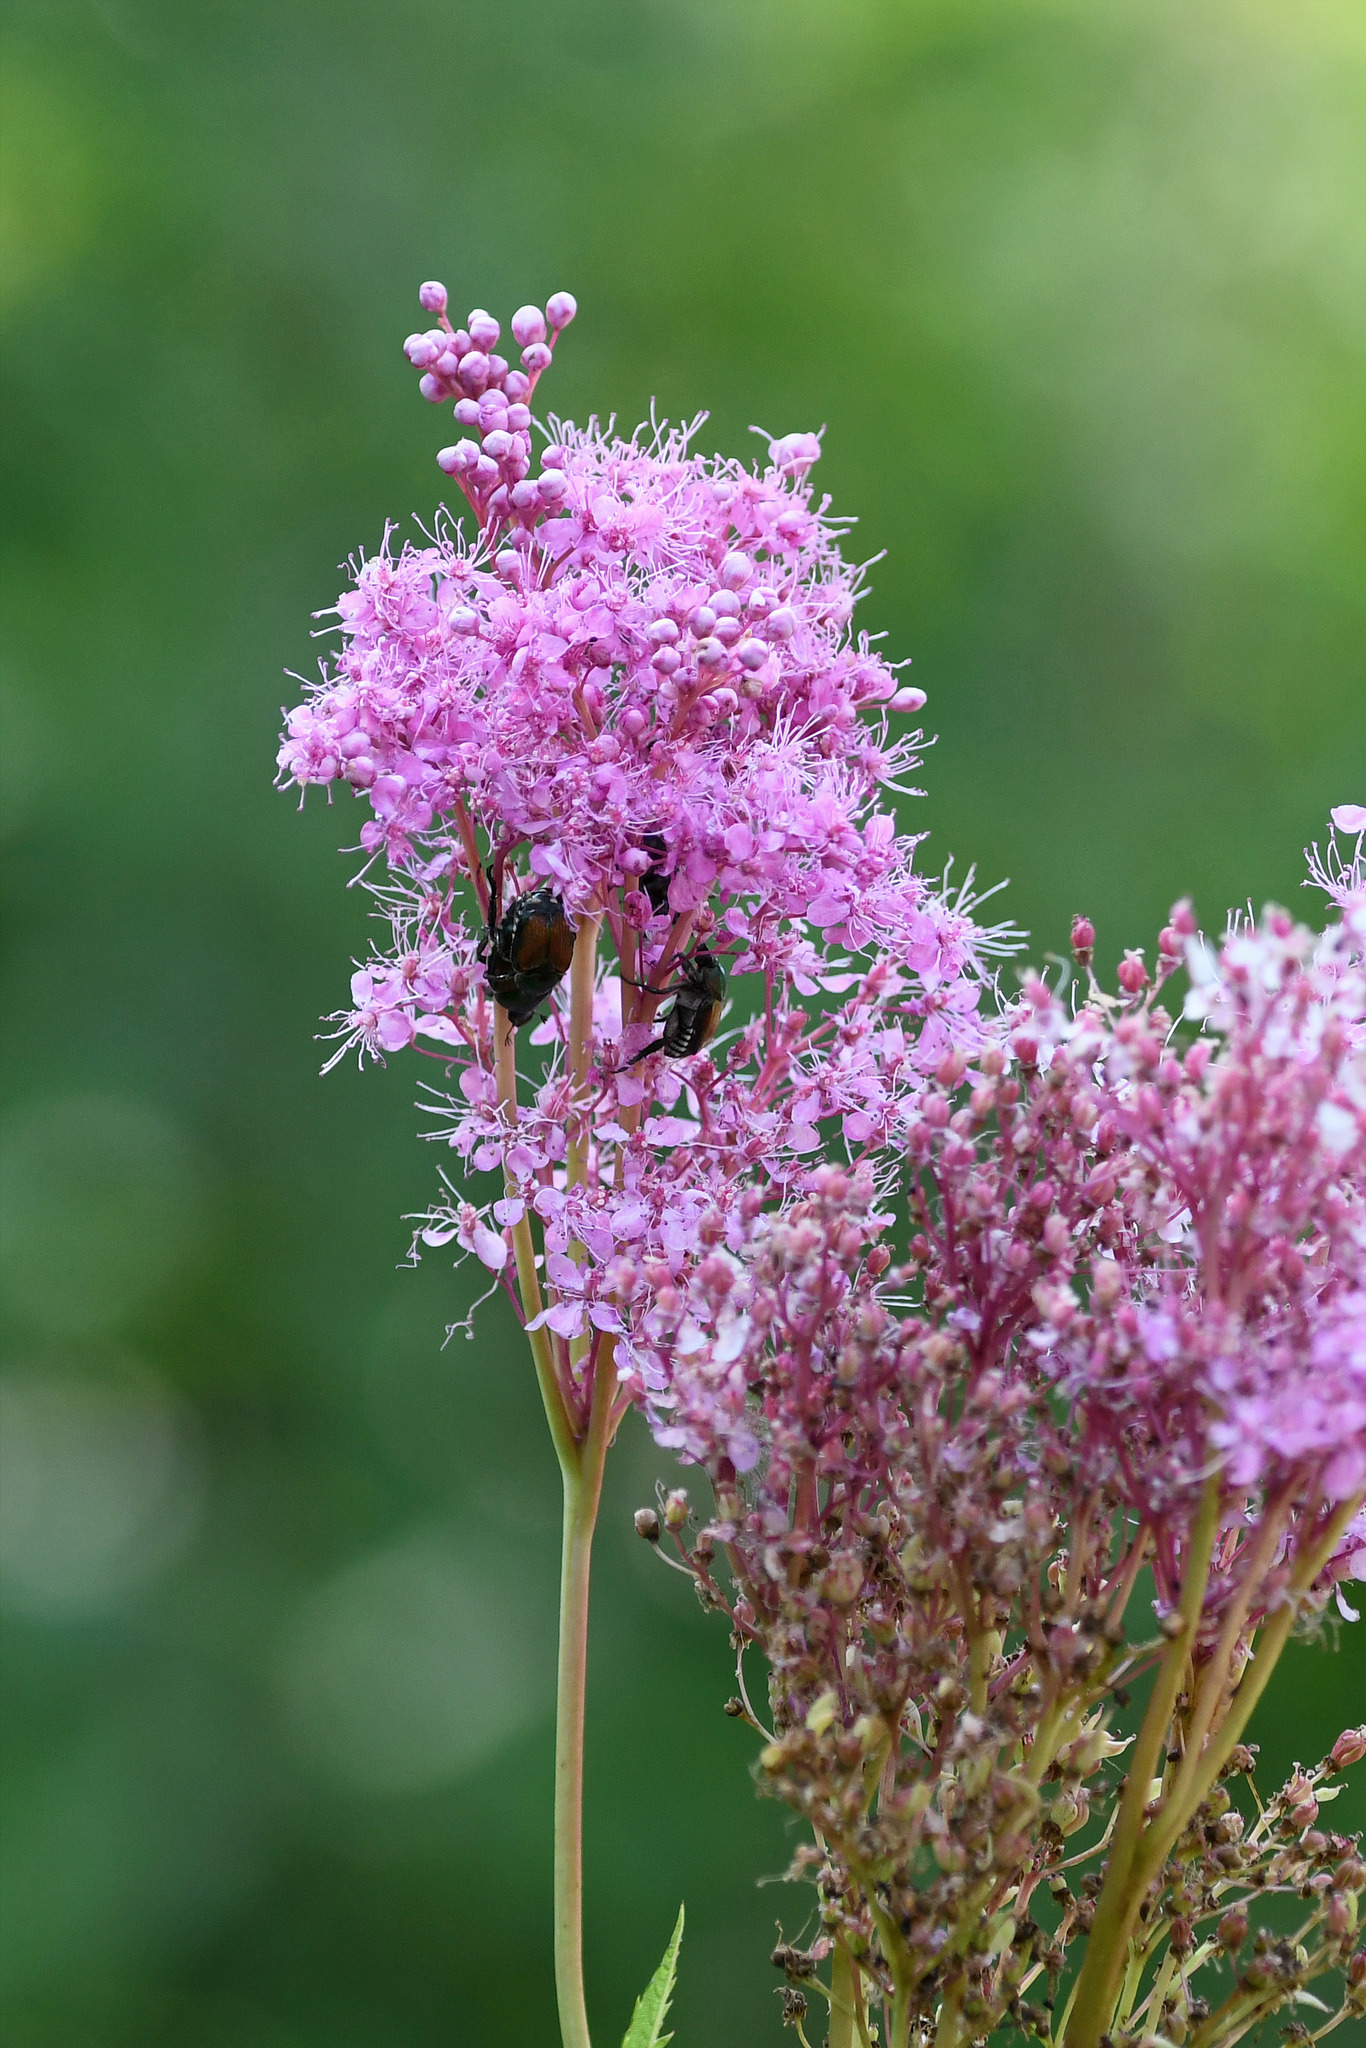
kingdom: Animalia
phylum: Arthropoda
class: Insecta
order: Coleoptera
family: Scarabaeidae
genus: Popillia
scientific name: Popillia japonica
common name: Japanese beetle
